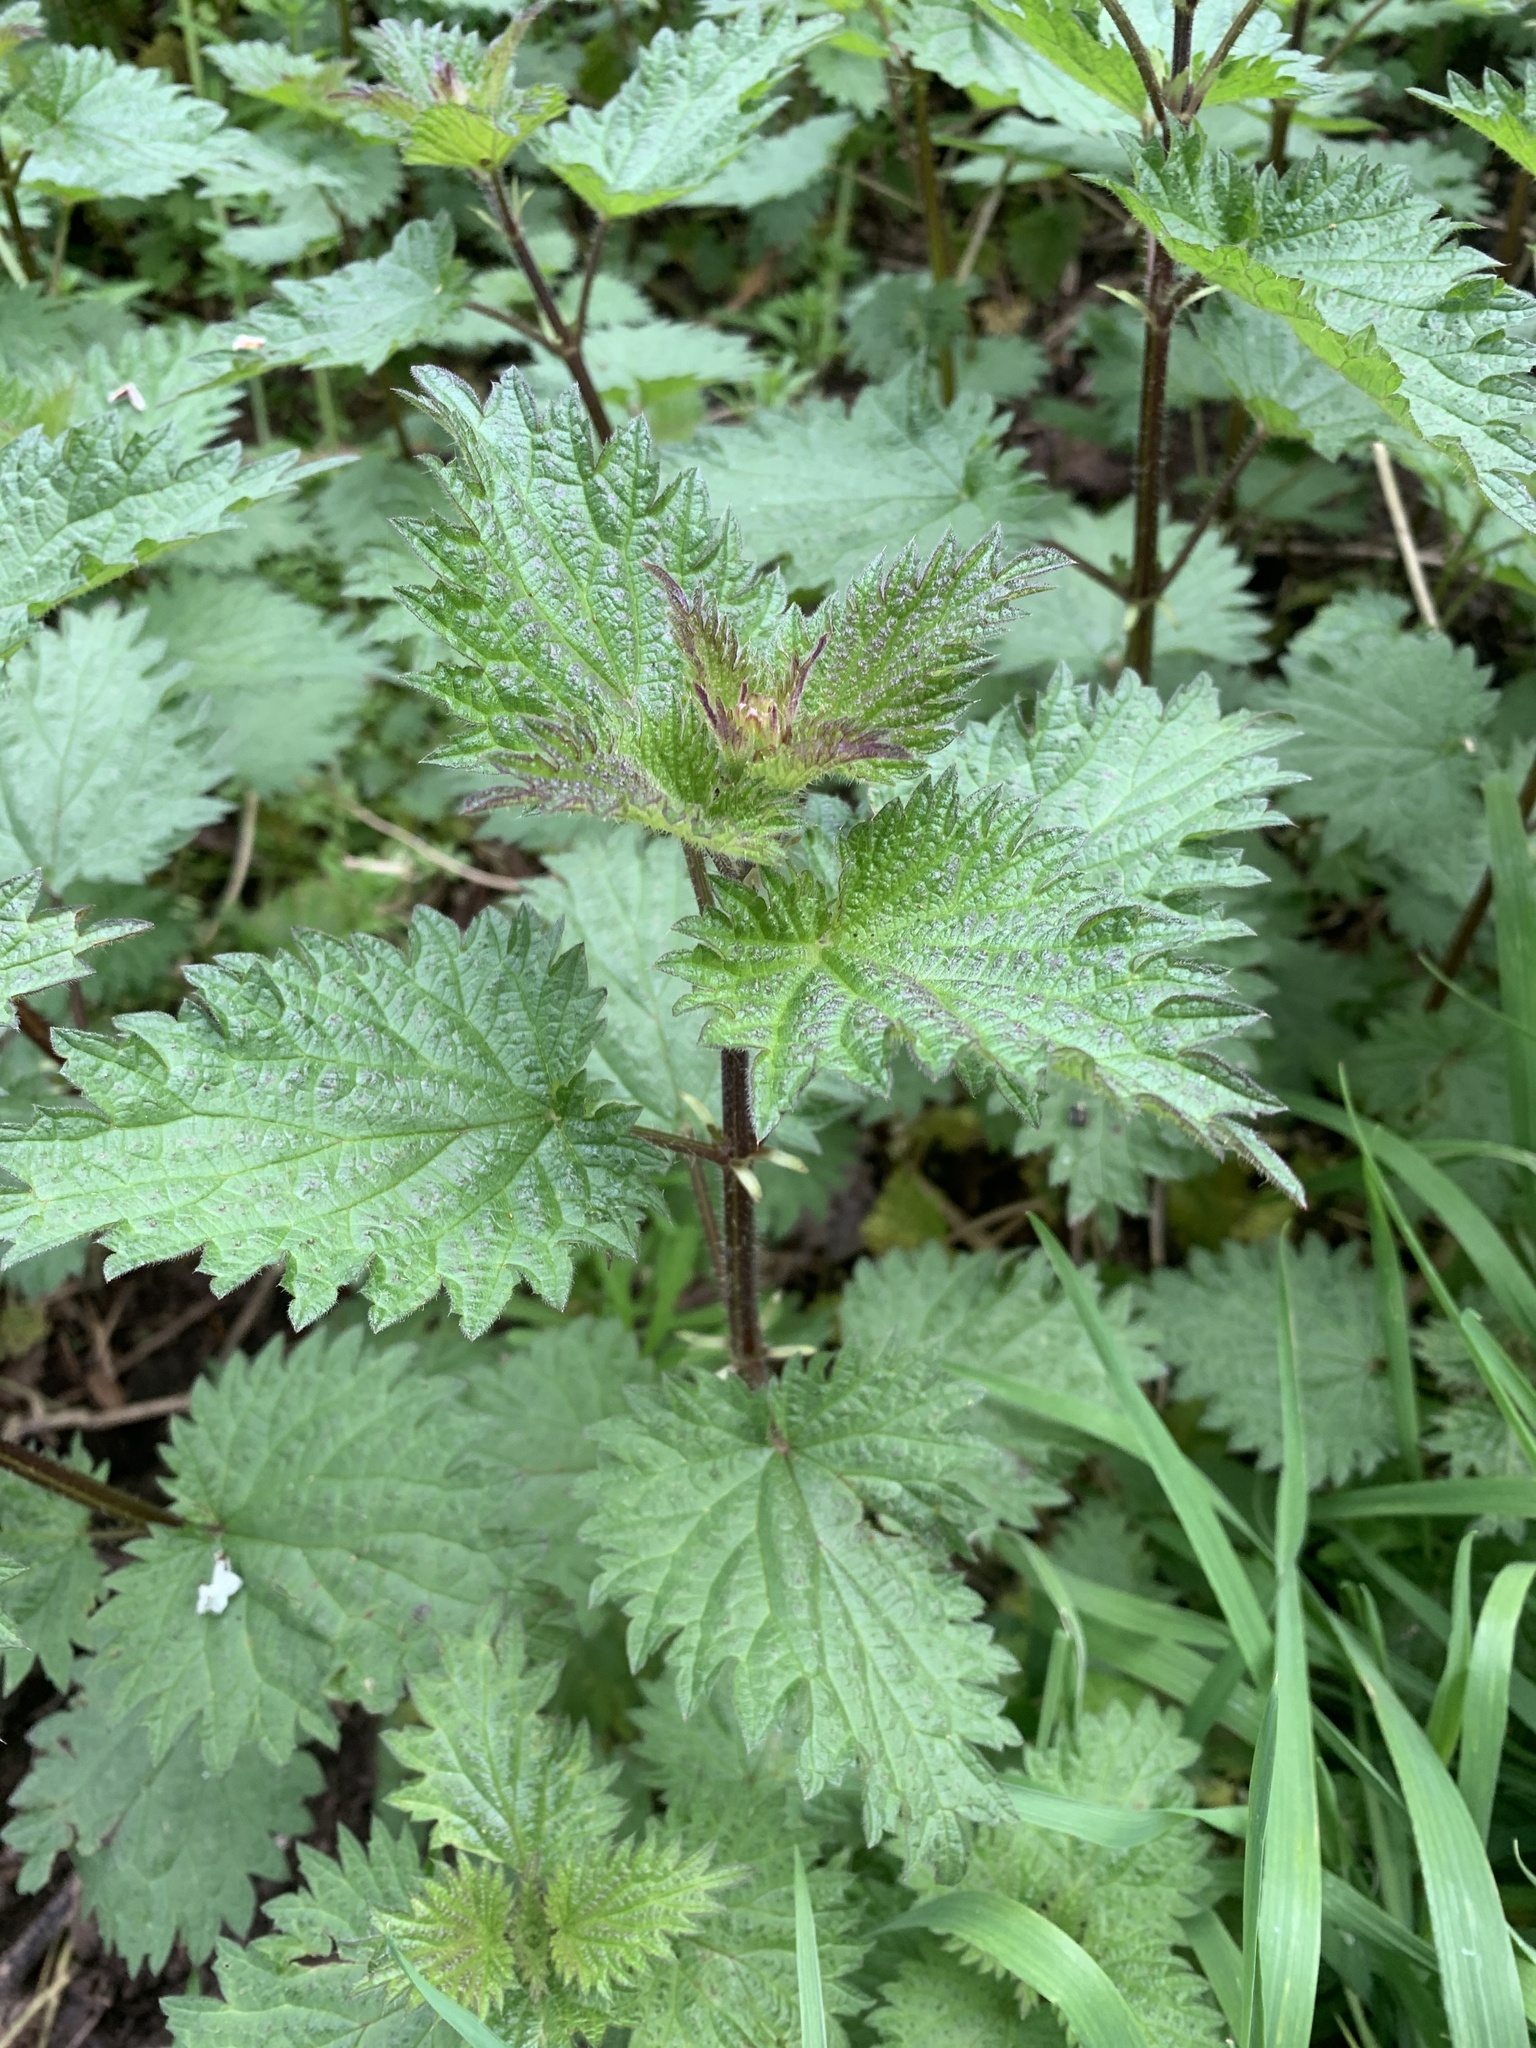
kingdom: Plantae
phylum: Tracheophyta
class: Magnoliopsida
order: Rosales
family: Urticaceae
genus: Urtica
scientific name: Urtica dioica
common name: Common nettle
